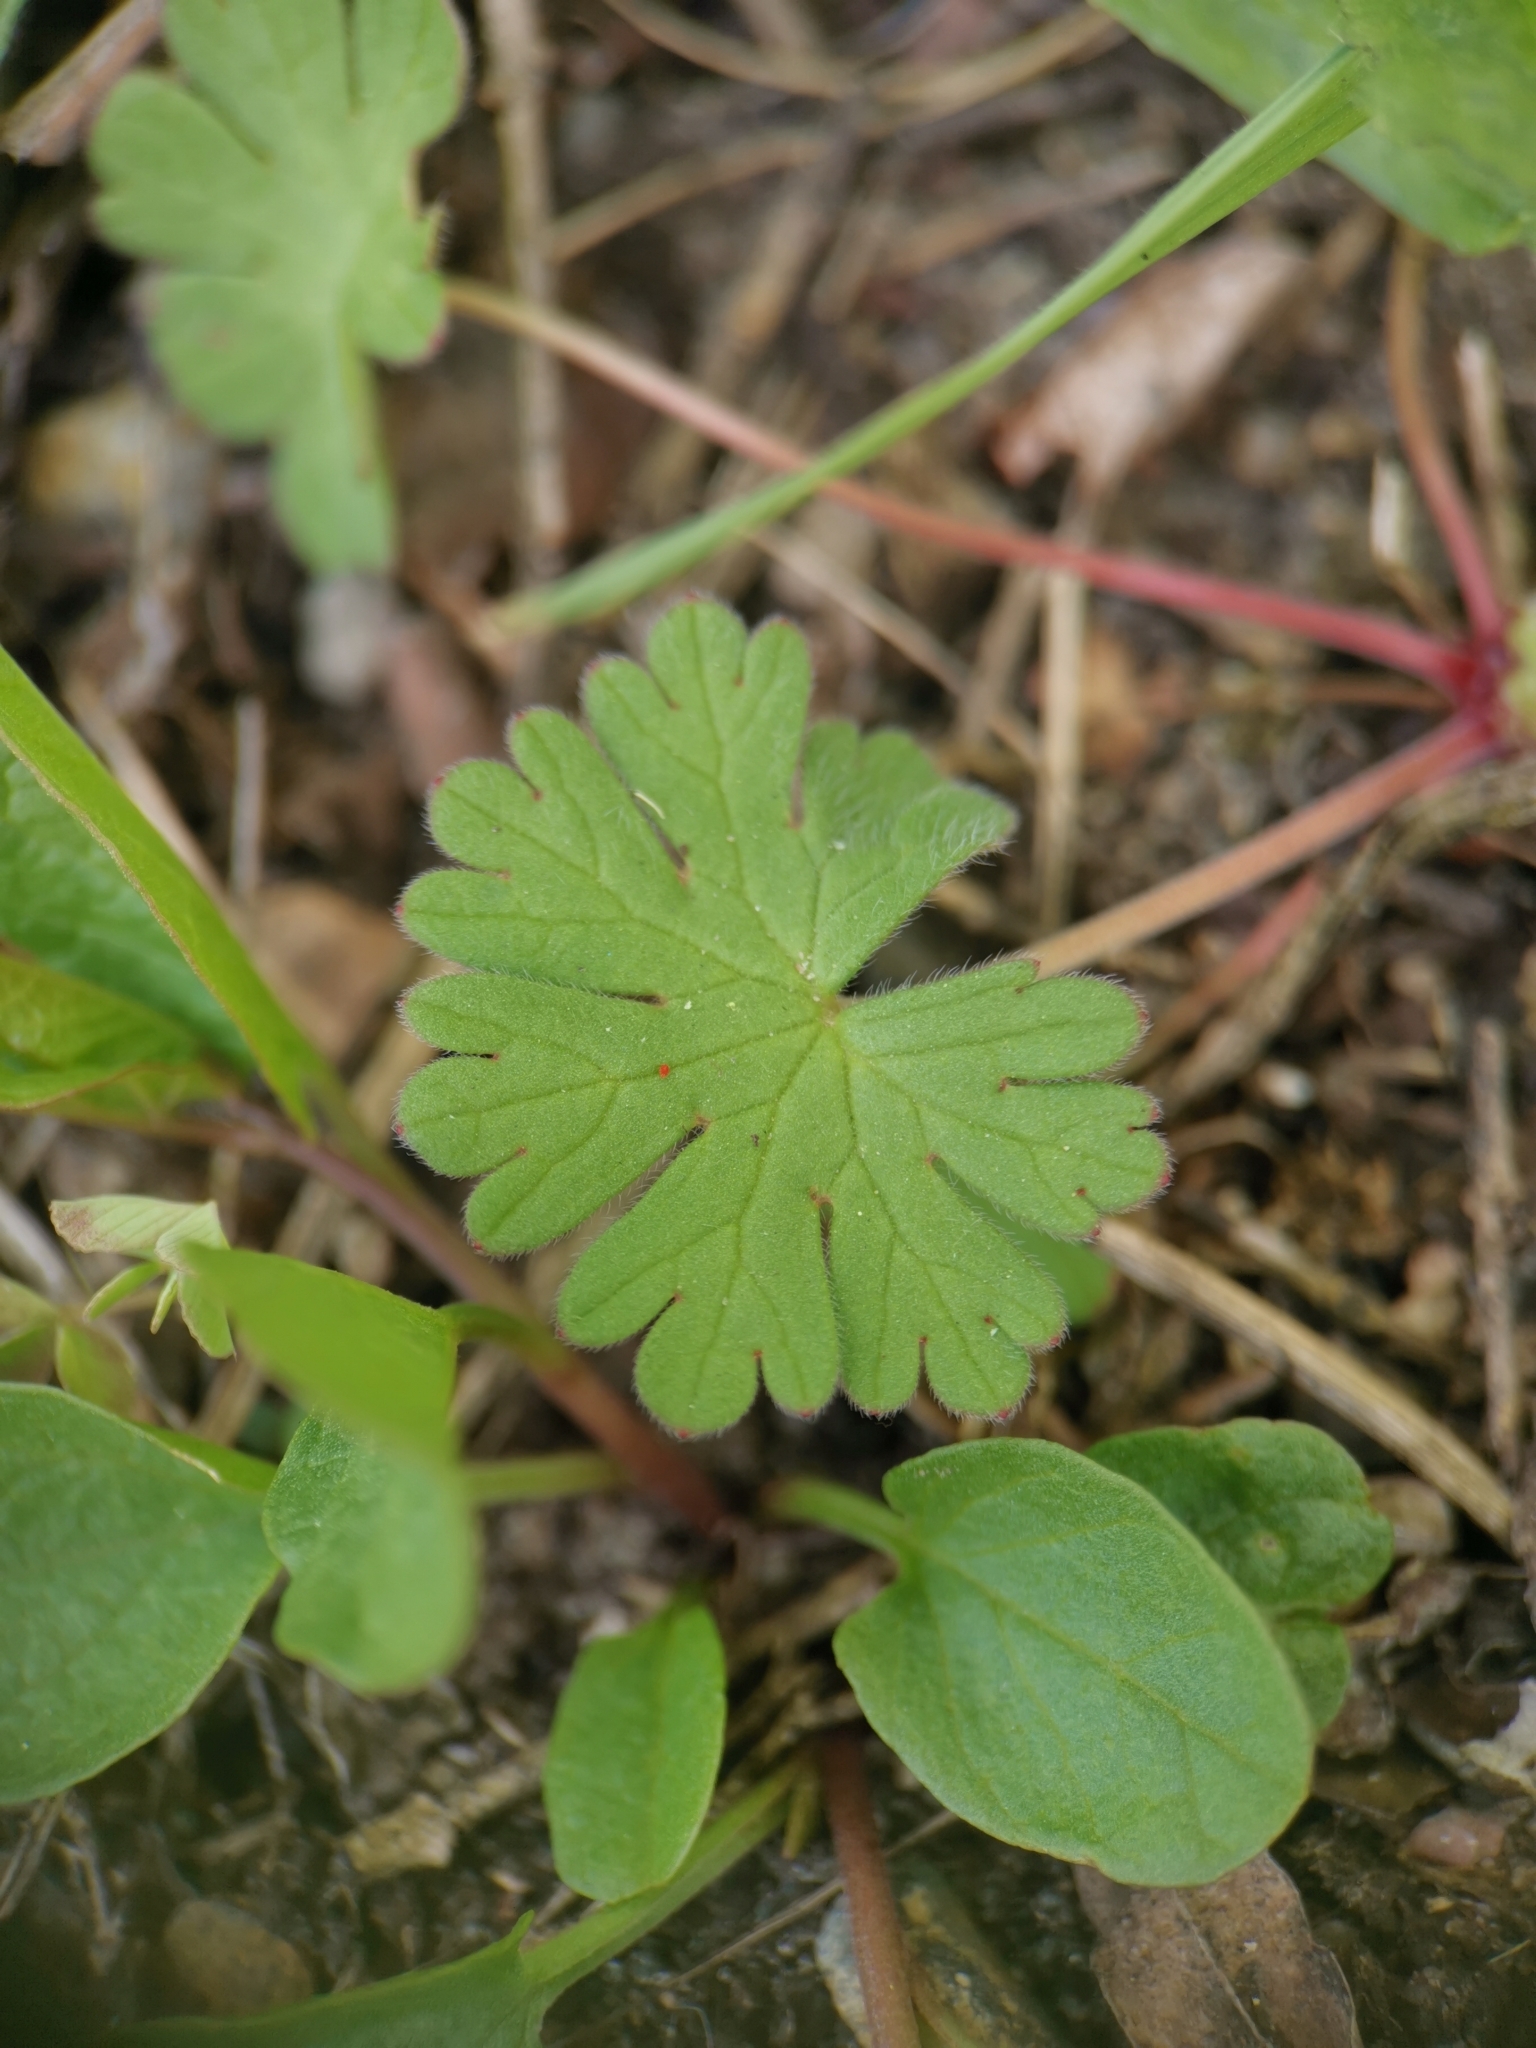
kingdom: Plantae
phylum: Tracheophyta
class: Magnoliopsida
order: Geraniales
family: Geraniaceae
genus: Geranium
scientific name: Geranium molle
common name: Dove's-foot crane's-bill
